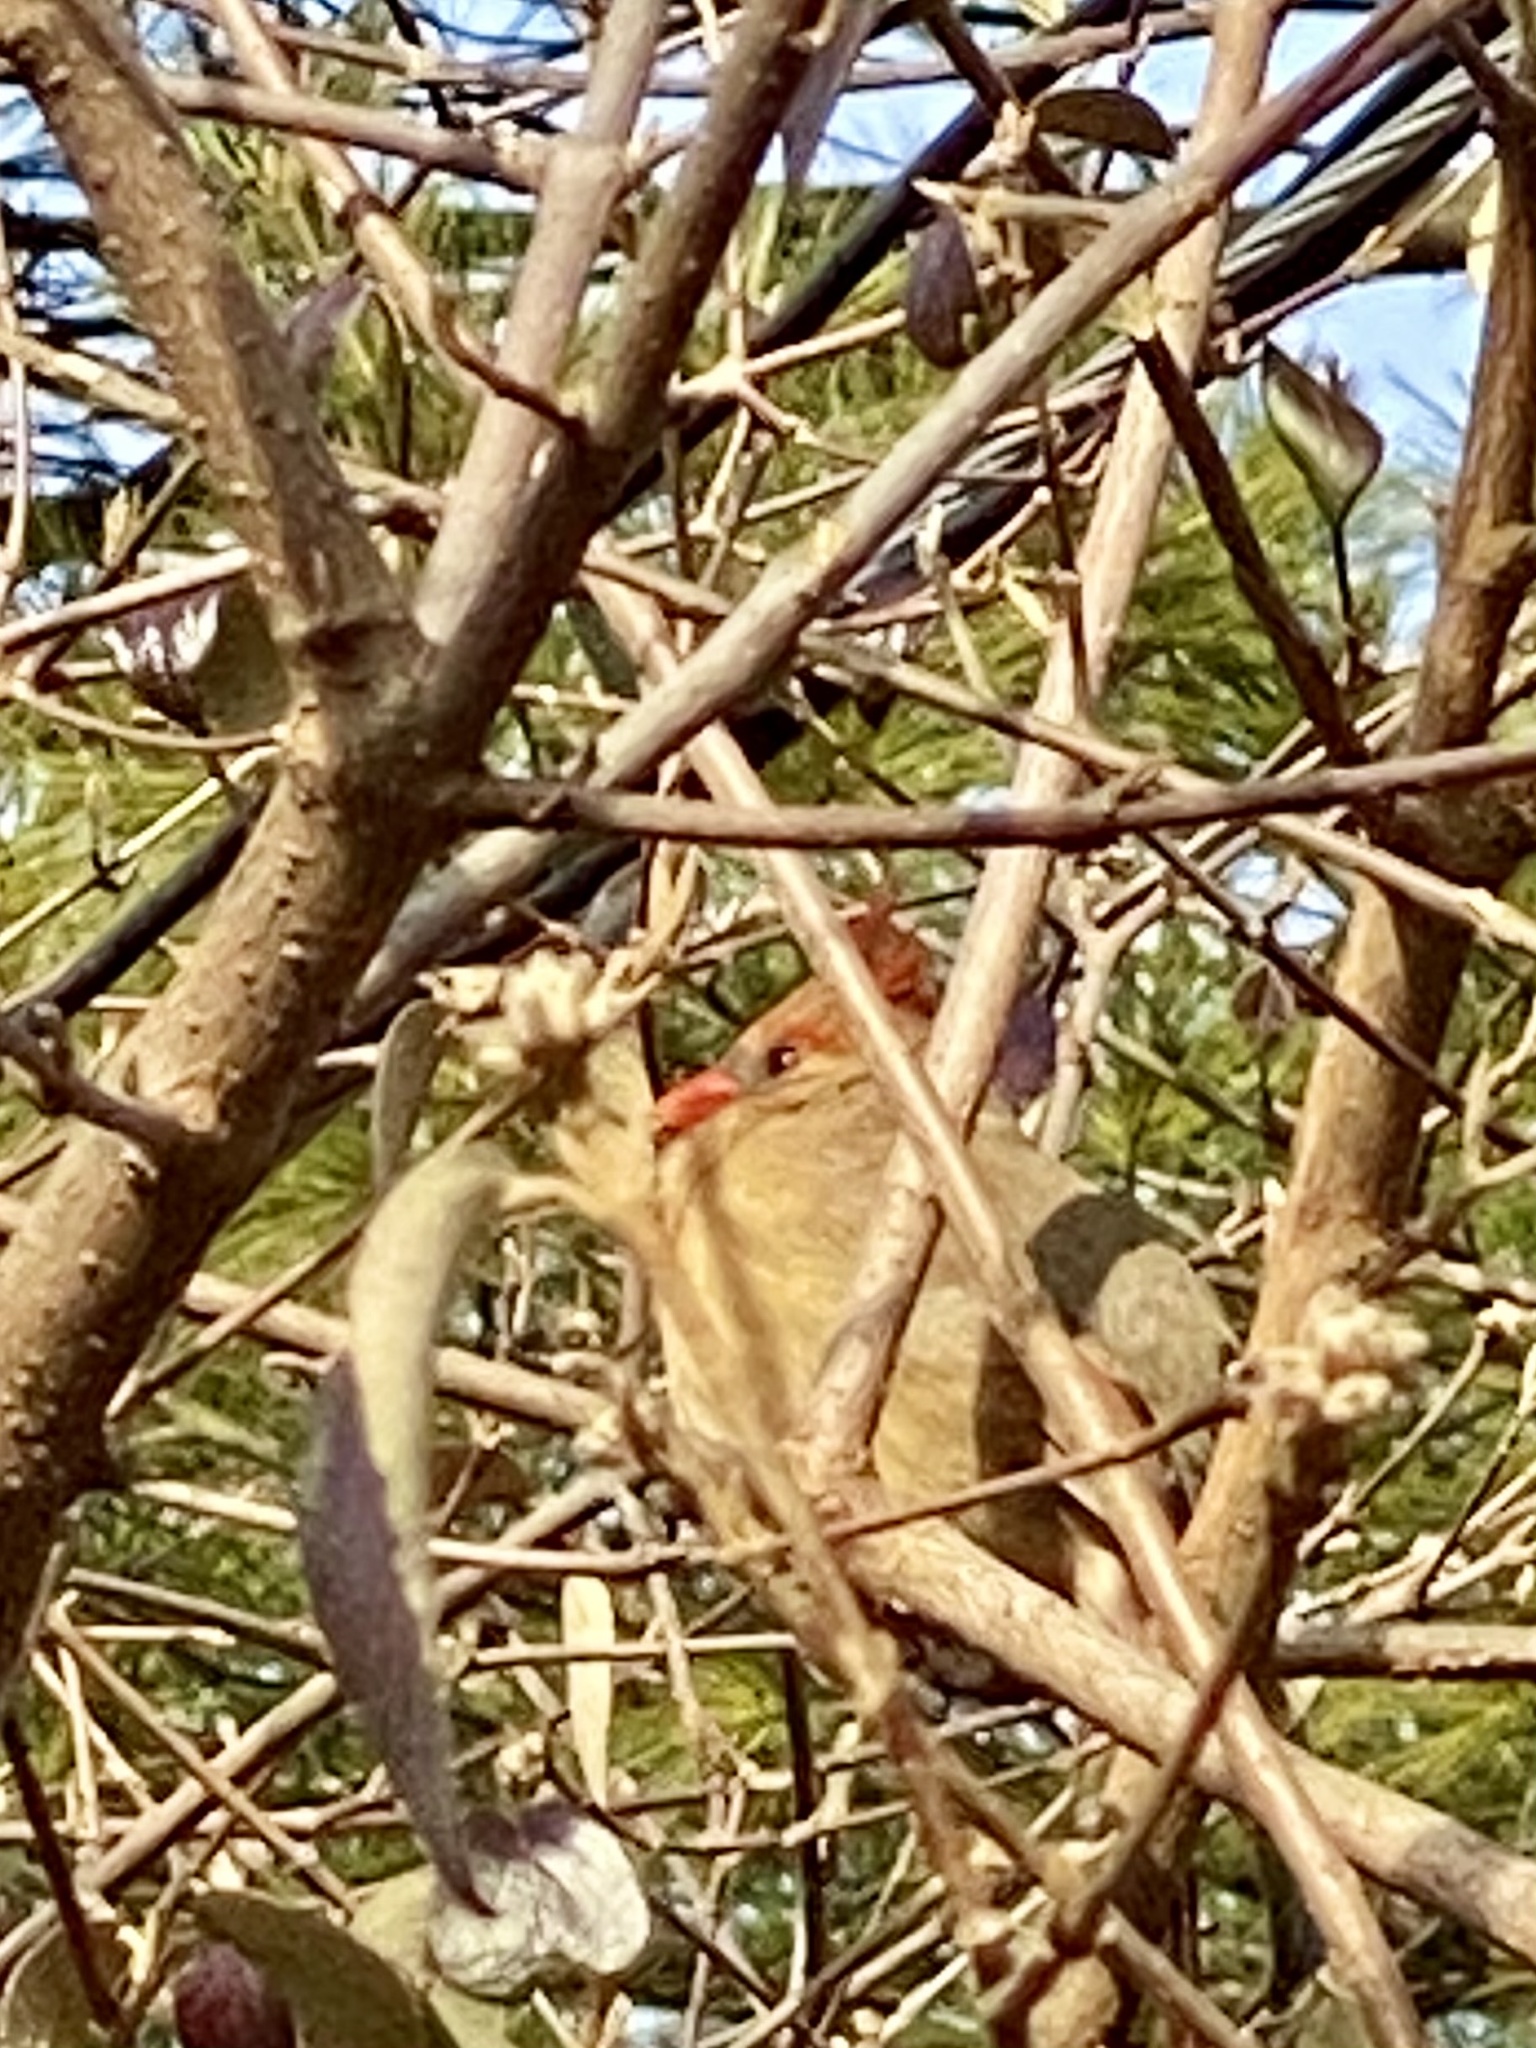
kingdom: Animalia
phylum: Chordata
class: Aves
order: Passeriformes
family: Cardinalidae
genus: Cardinalis
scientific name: Cardinalis cardinalis
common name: Northern cardinal
